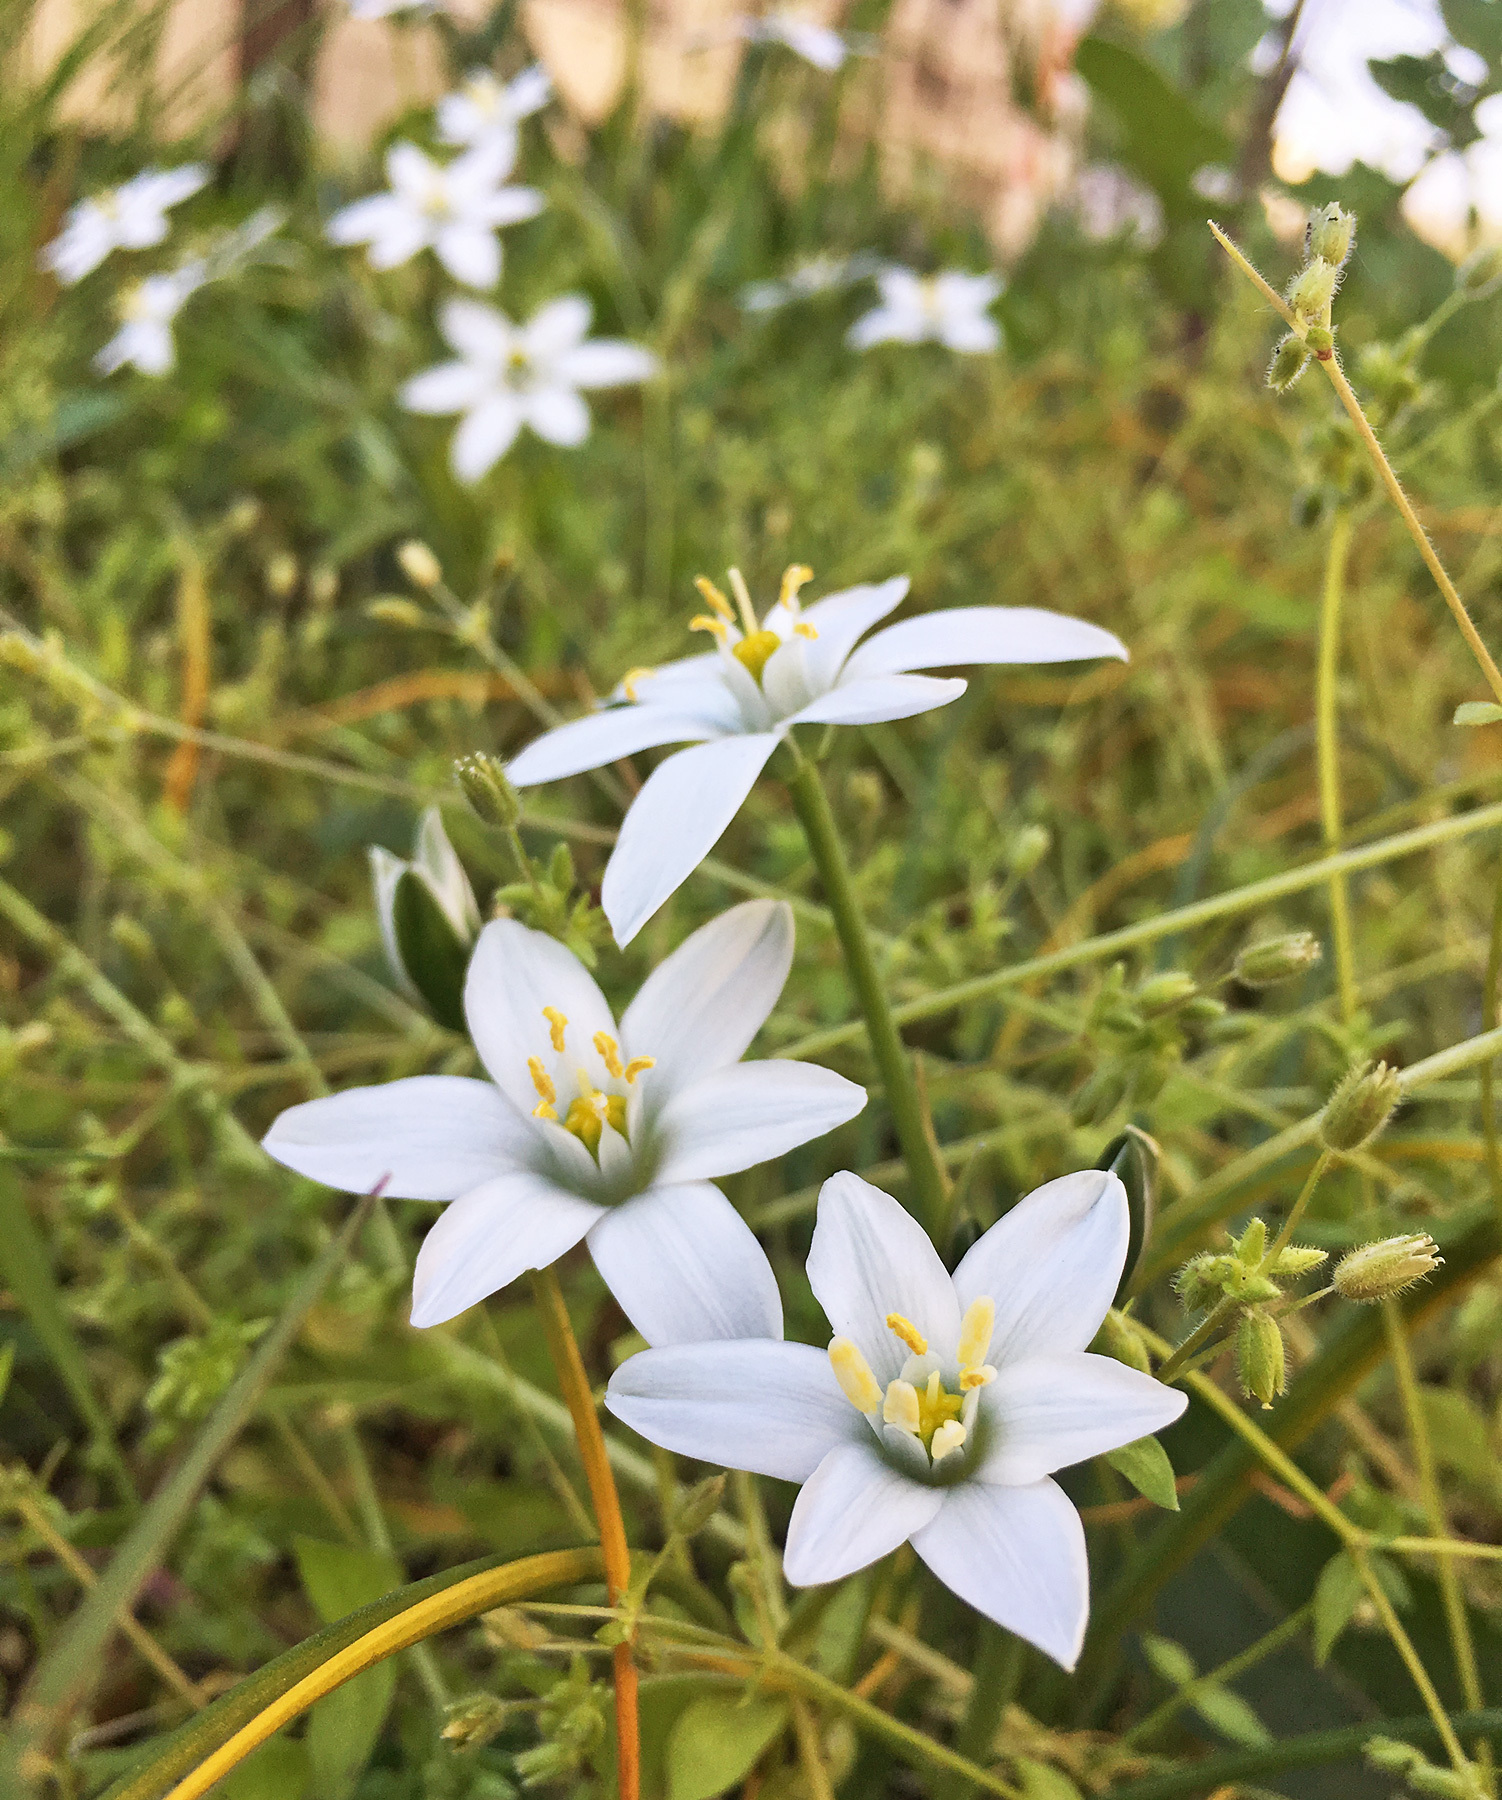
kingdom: Plantae
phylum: Tracheophyta
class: Liliopsida
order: Asparagales
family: Asparagaceae
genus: Ornithogalum
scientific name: Ornithogalum umbellatum
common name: Garden star-of-bethlehem
